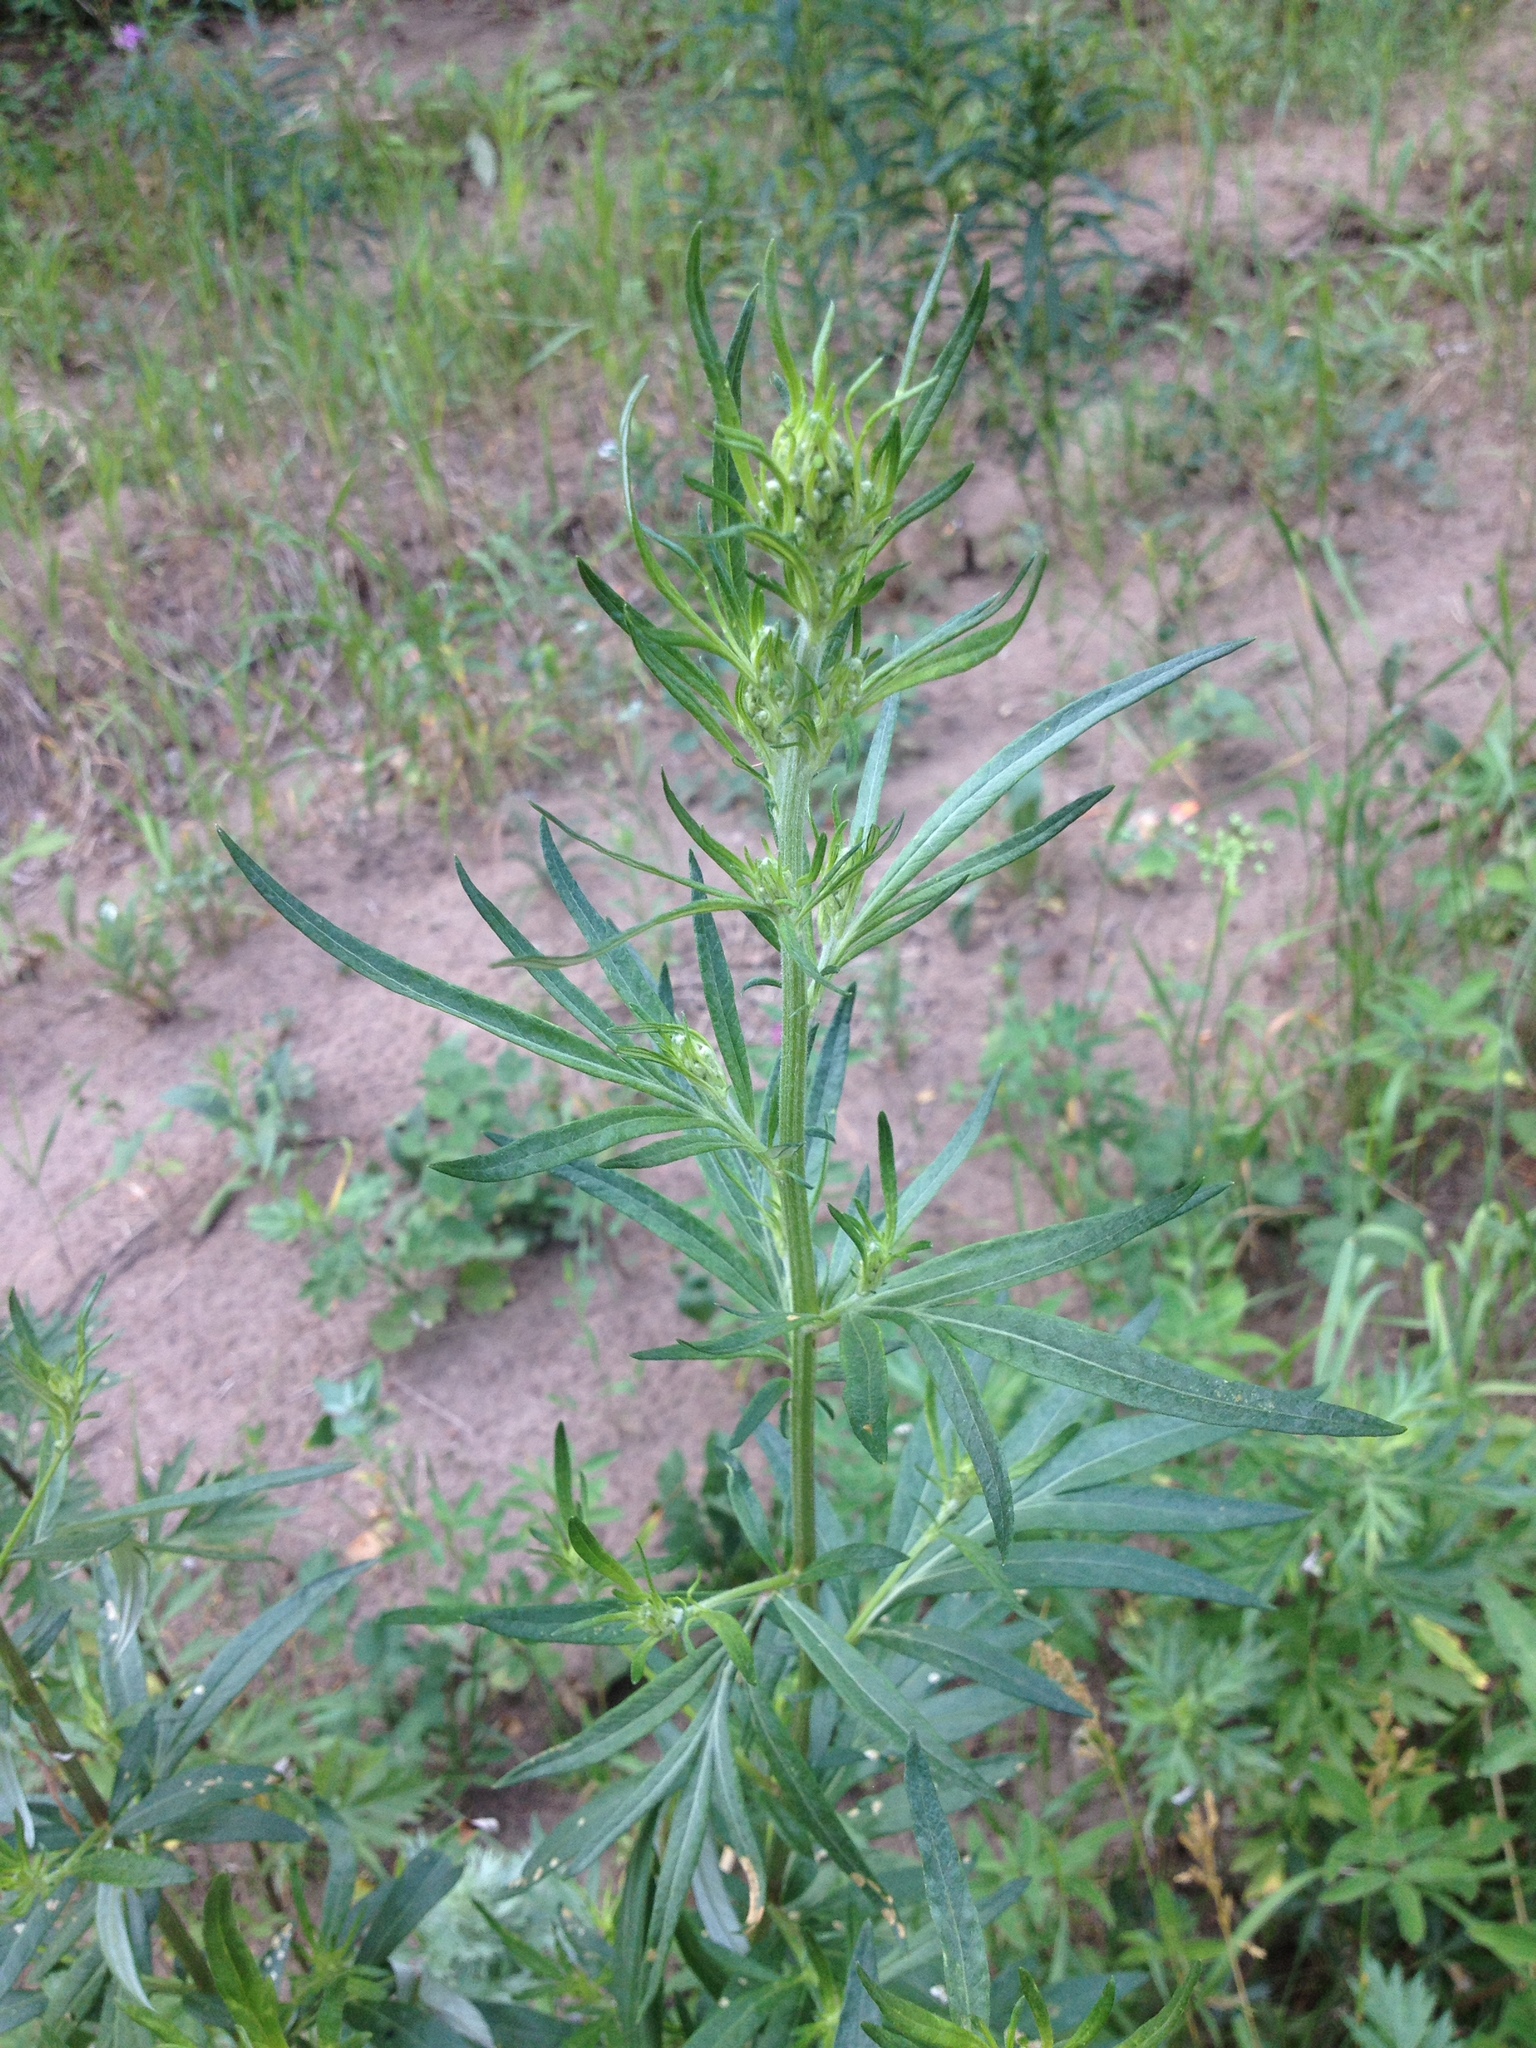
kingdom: Plantae
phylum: Tracheophyta
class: Magnoliopsida
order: Asterales
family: Asteraceae
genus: Artemisia
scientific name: Artemisia vulgaris
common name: Mugwort
